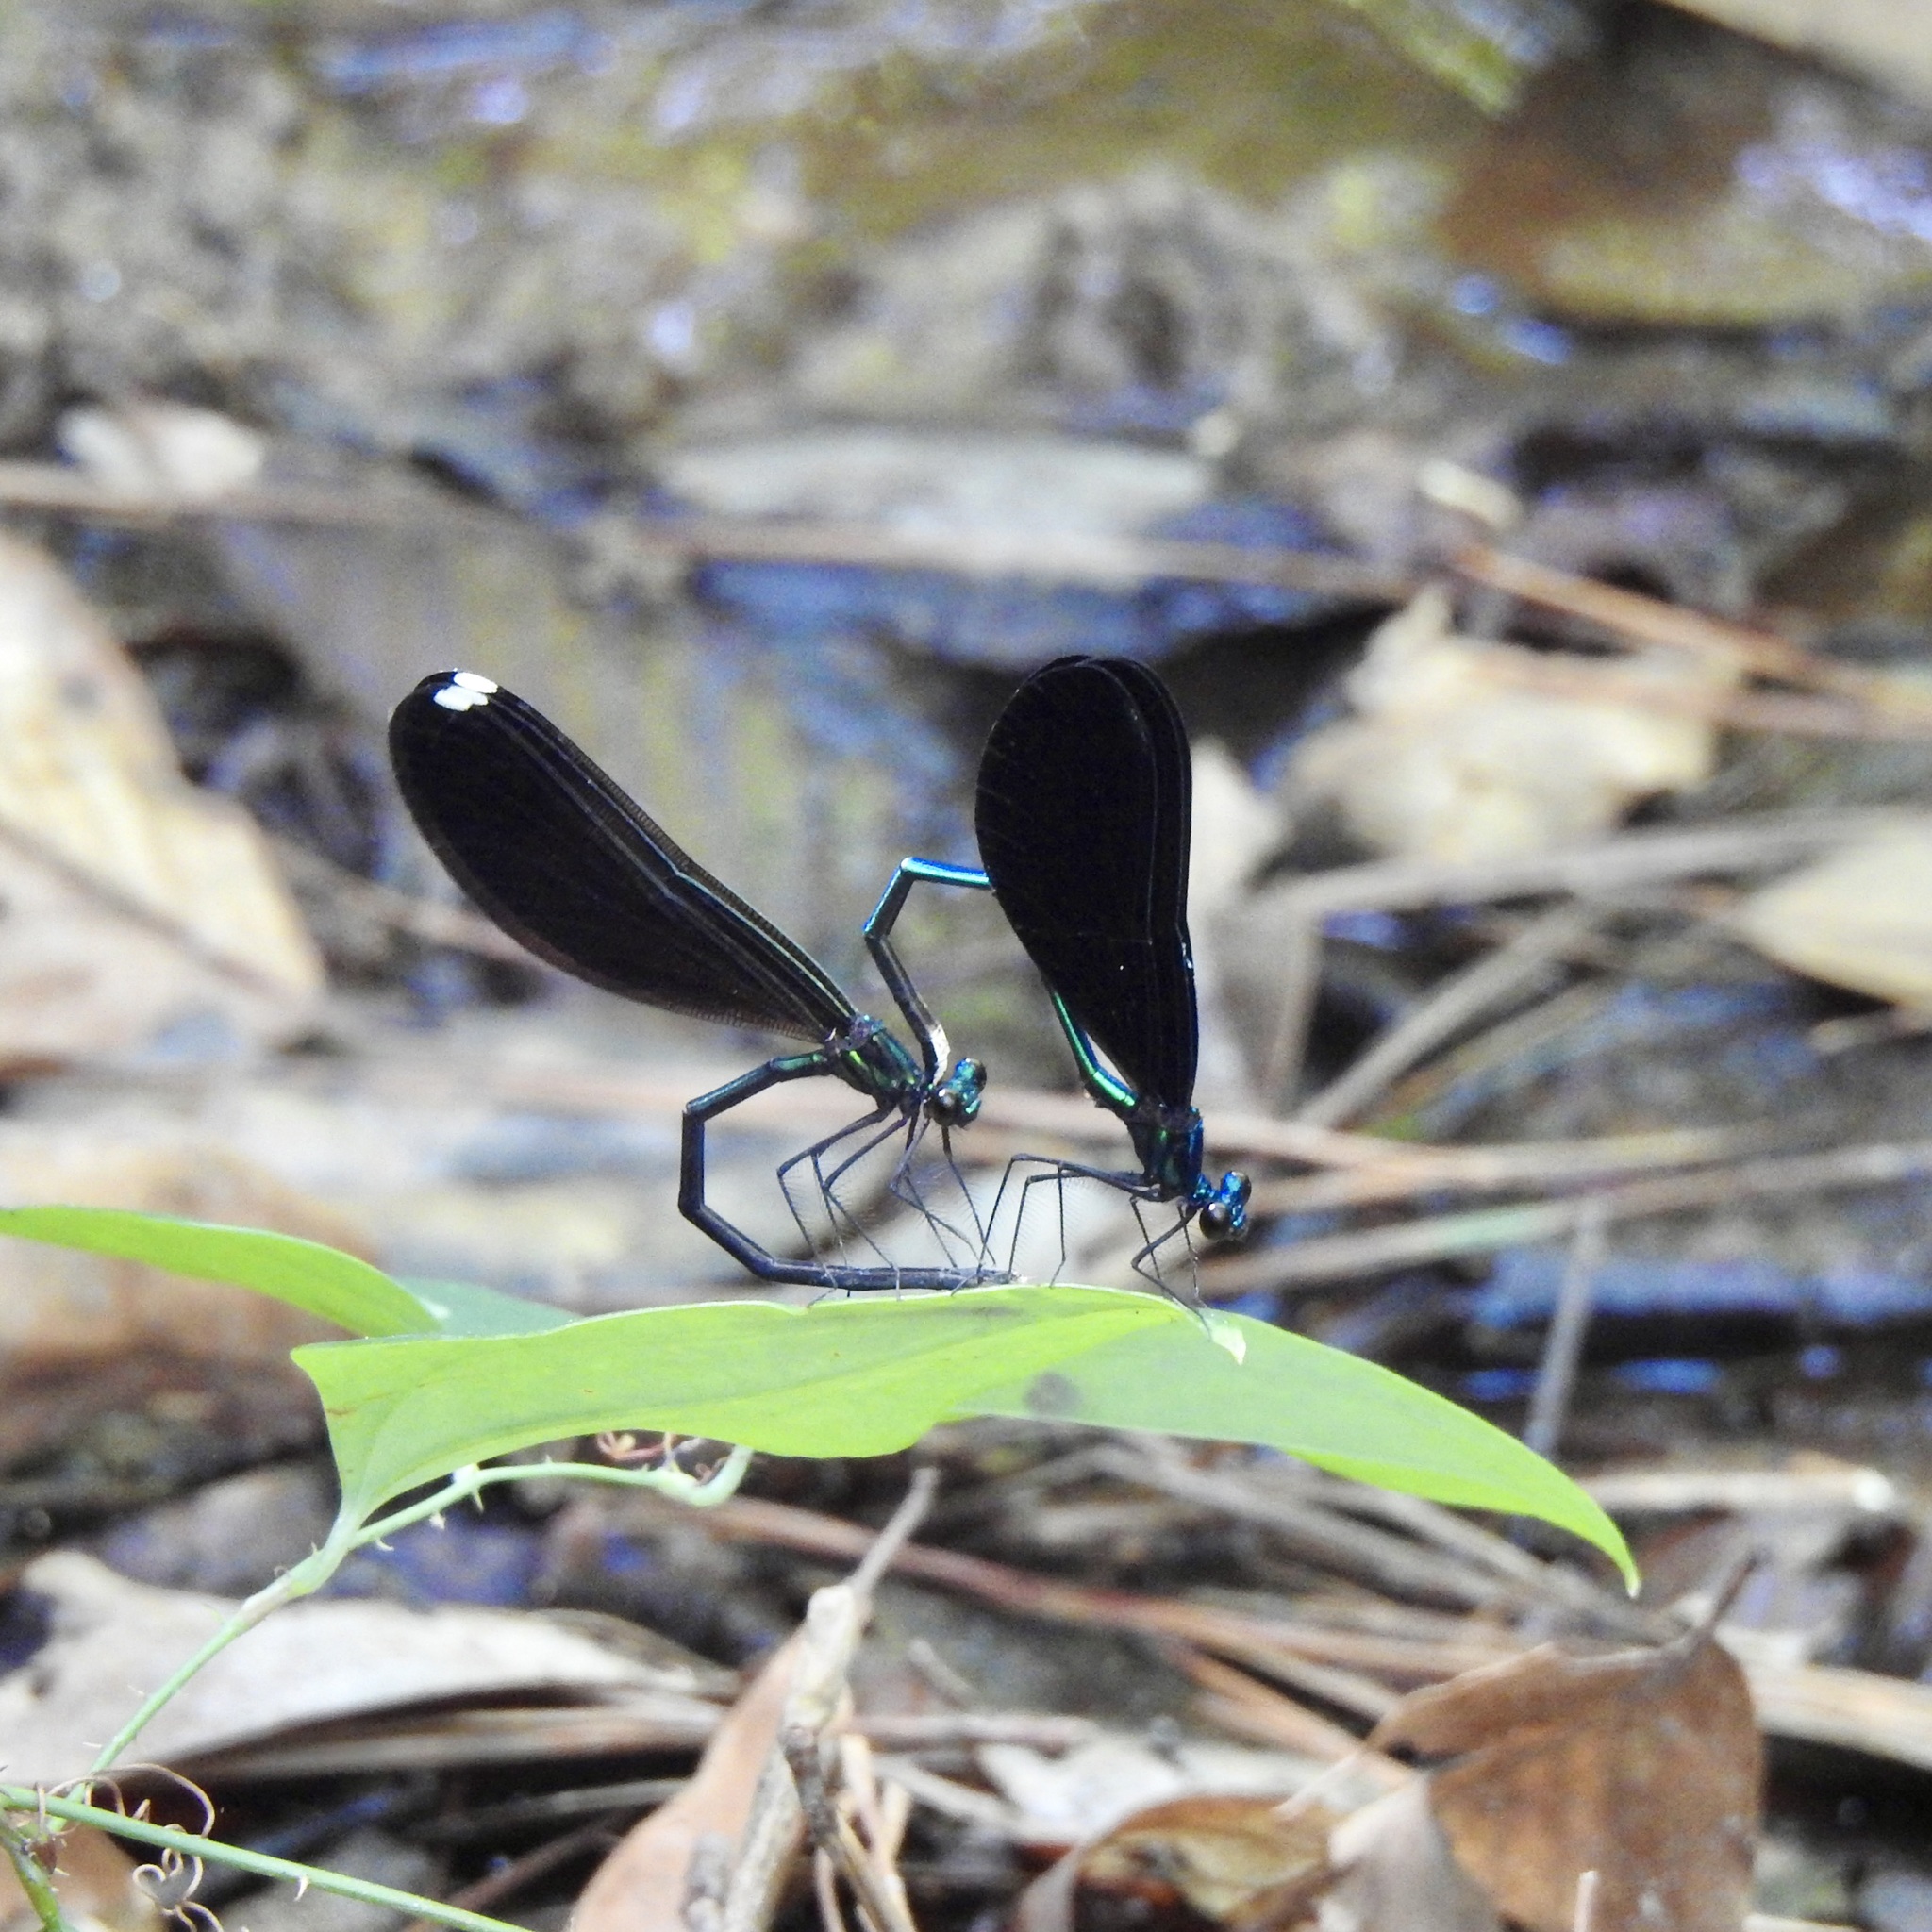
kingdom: Animalia
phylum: Arthropoda
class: Insecta
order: Odonata
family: Calopterygidae
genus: Calopteryx
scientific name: Calopteryx maculata
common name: Ebony jewelwing
